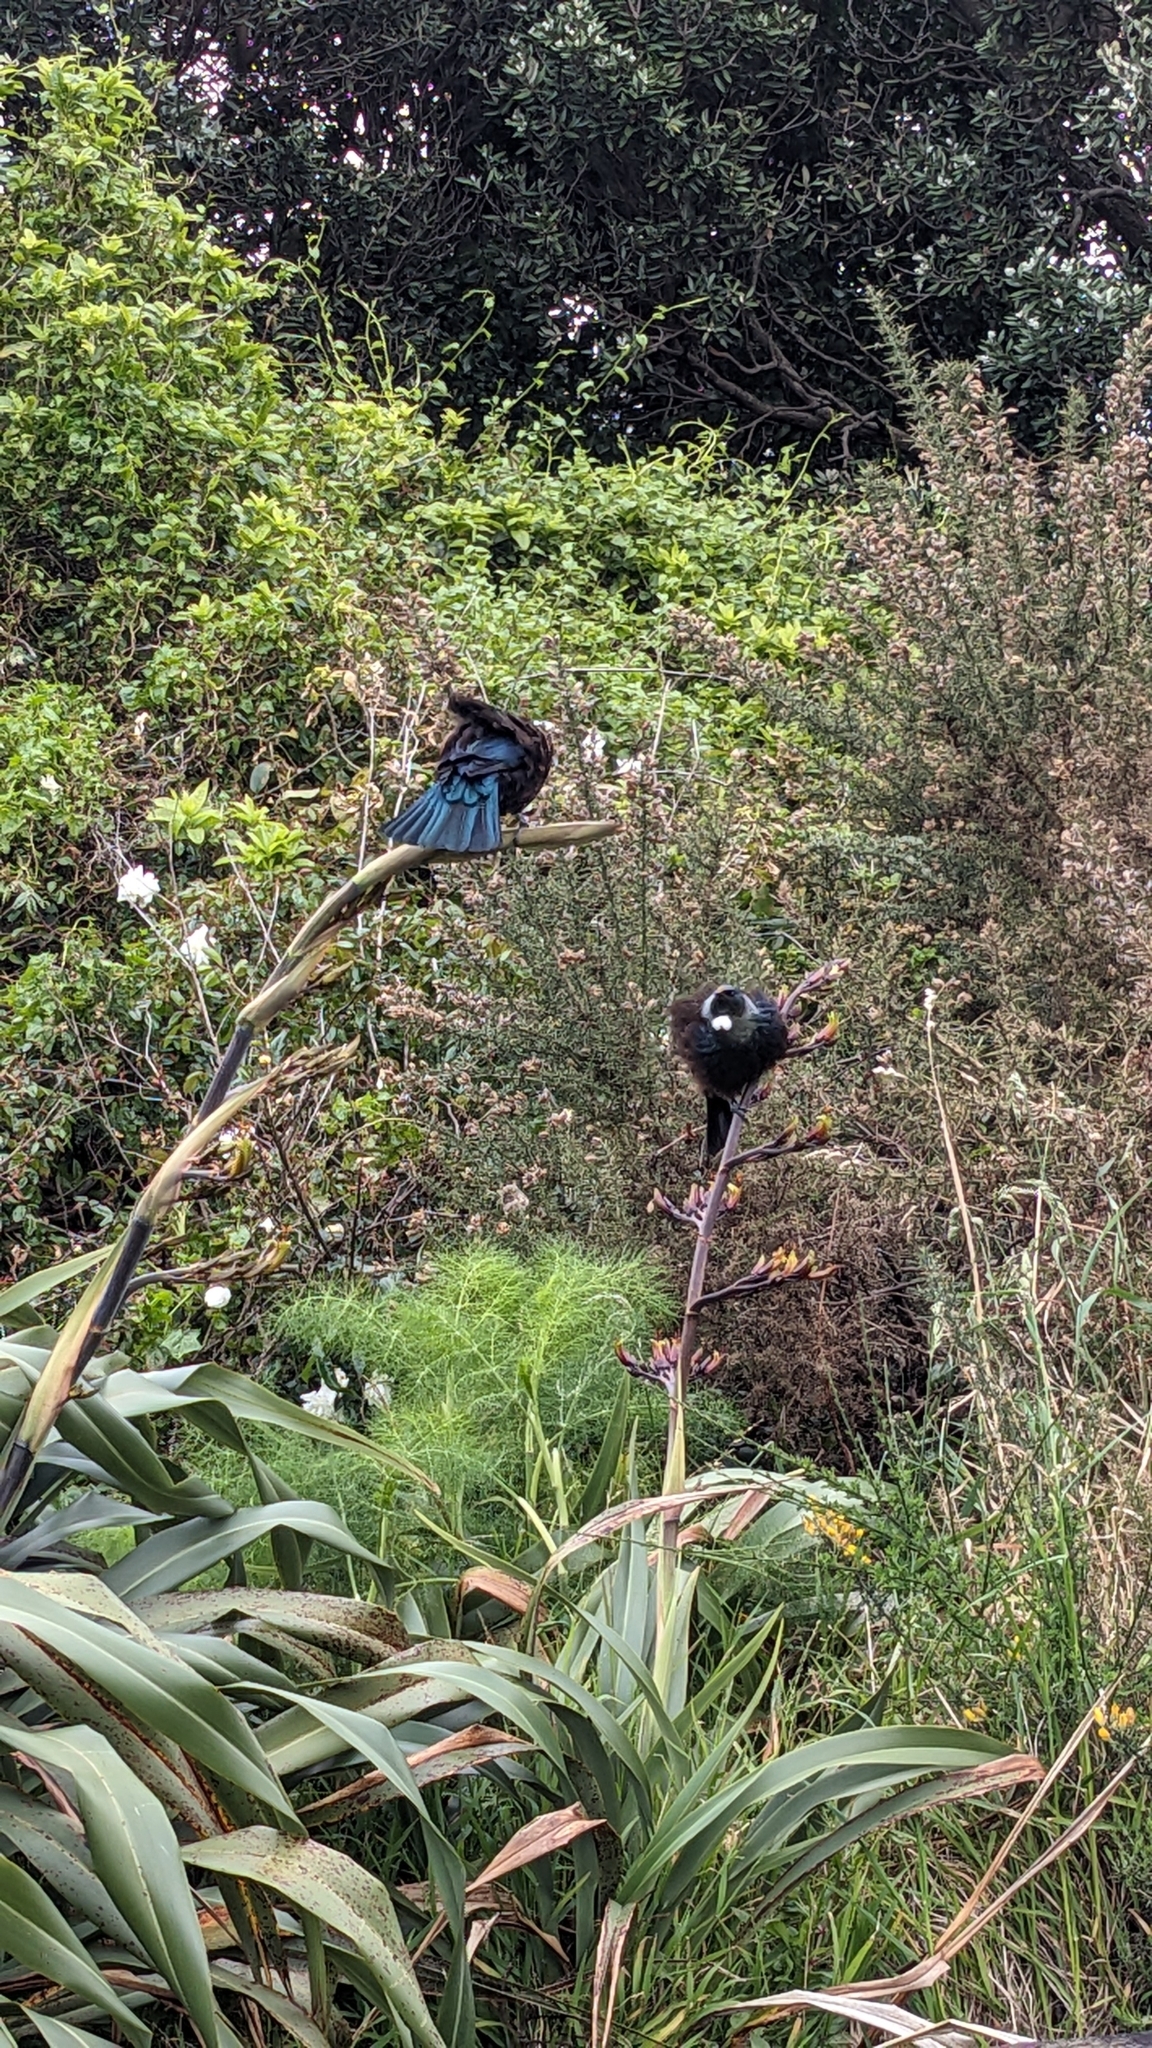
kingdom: Animalia
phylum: Chordata
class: Aves
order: Passeriformes
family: Meliphagidae
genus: Prosthemadera
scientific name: Prosthemadera novaeseelandiae
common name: Tui
